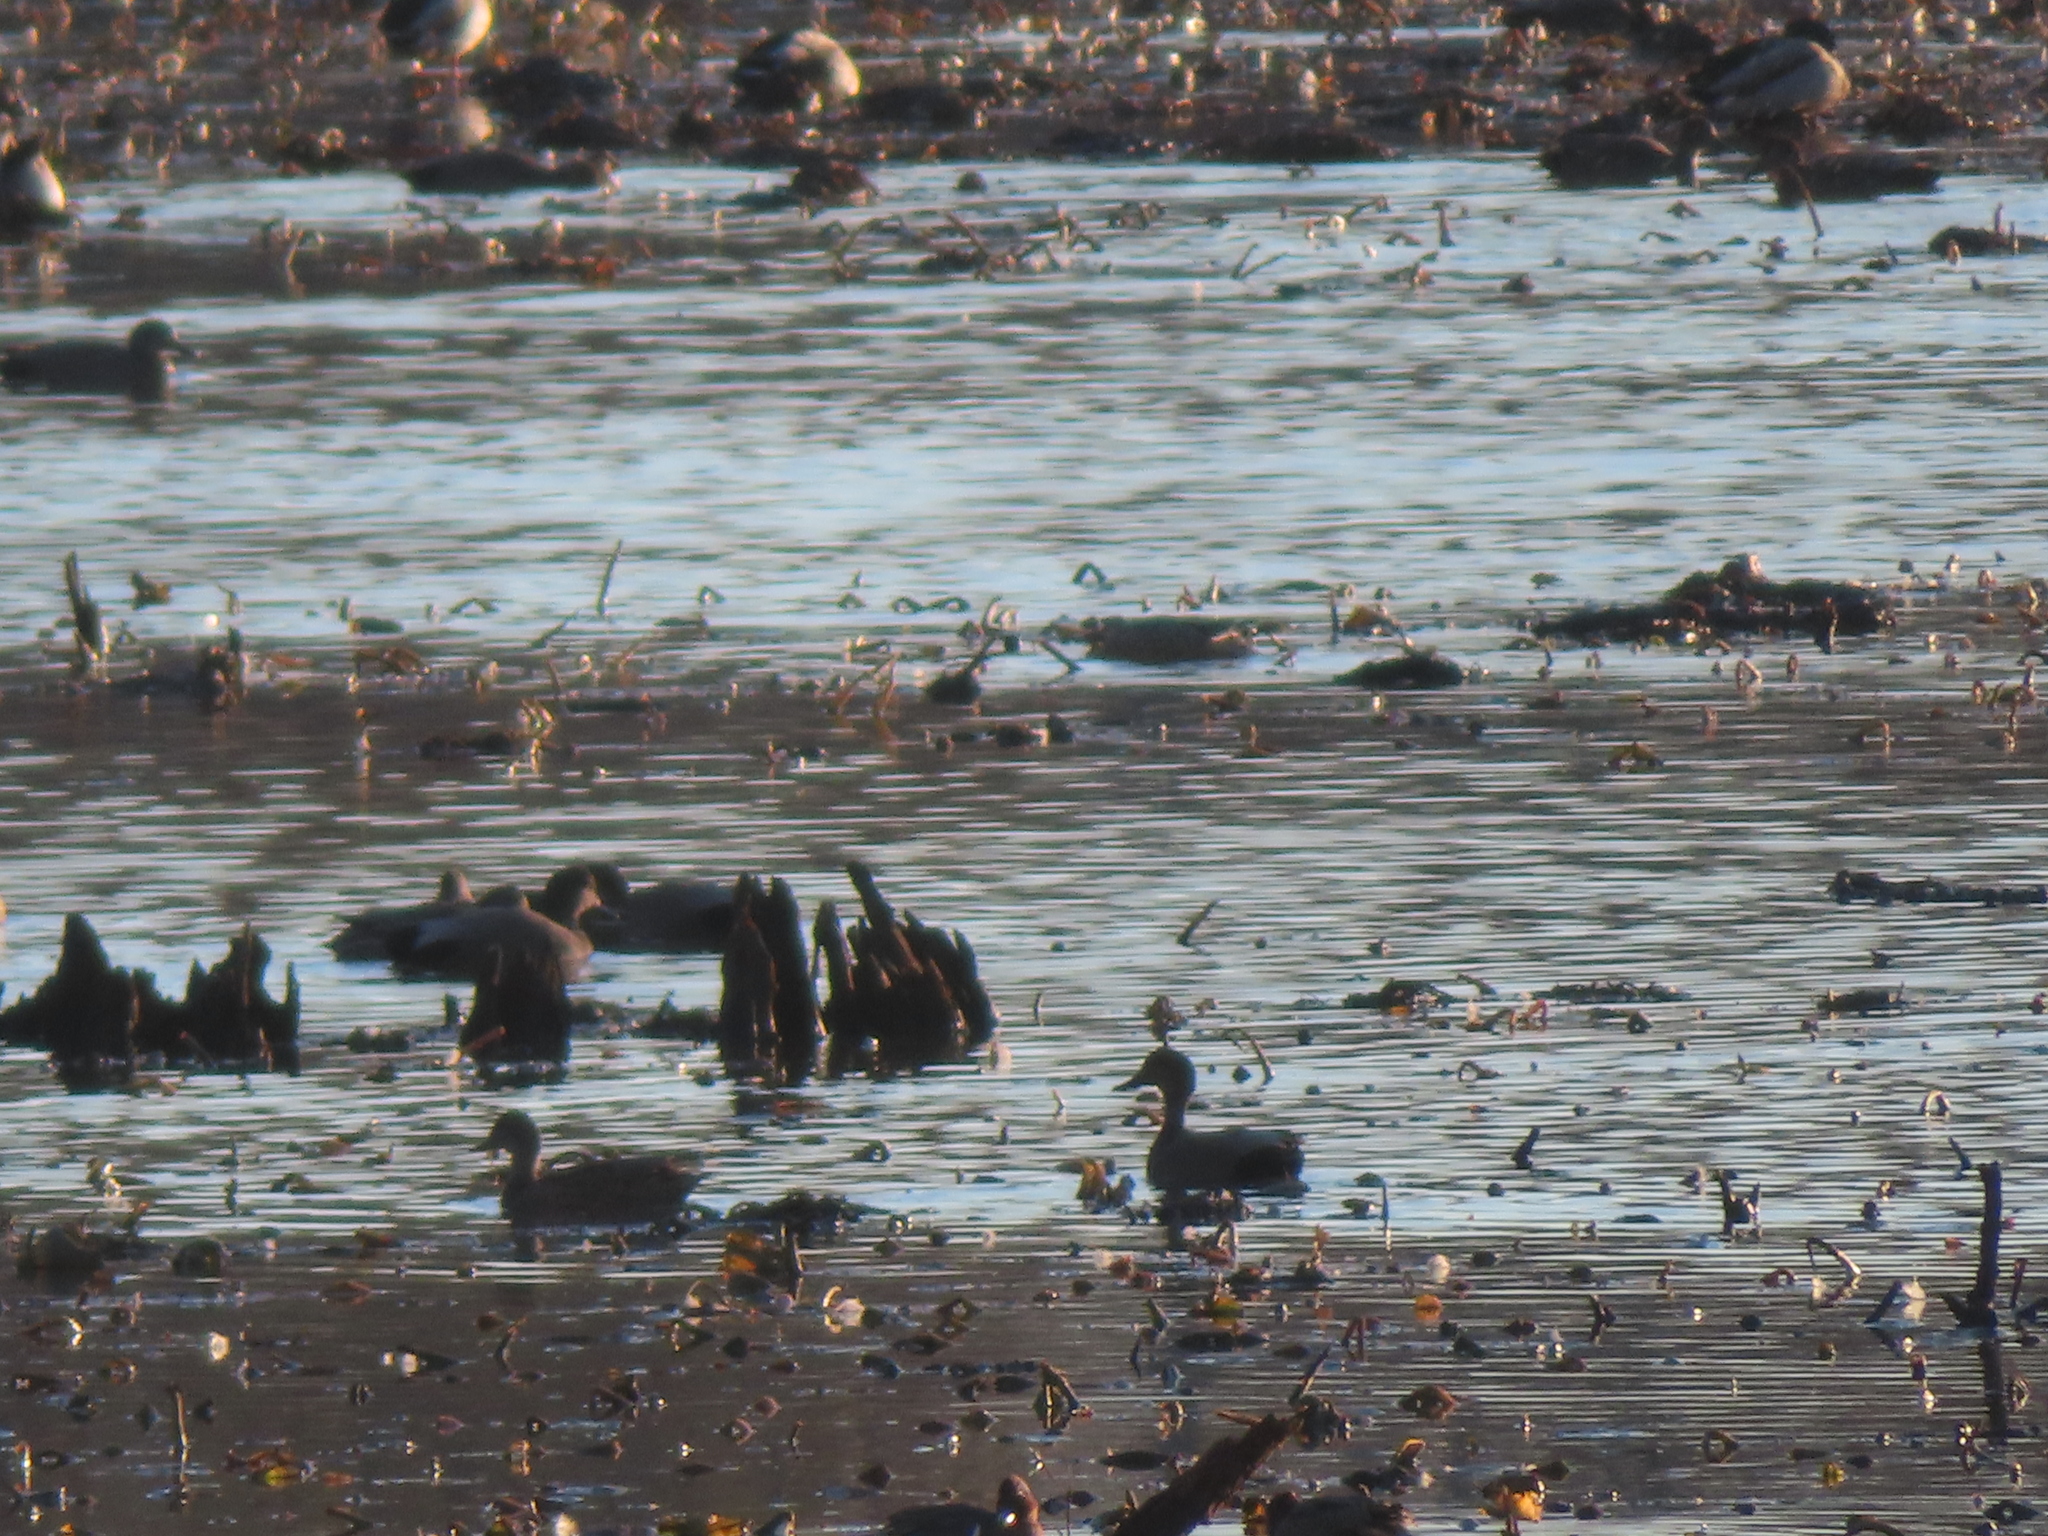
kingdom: Animalia
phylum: Chordata
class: Aves
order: Anseriformes
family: Anatidae
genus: Mareca
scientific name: Mareca strepera
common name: Gadwall
